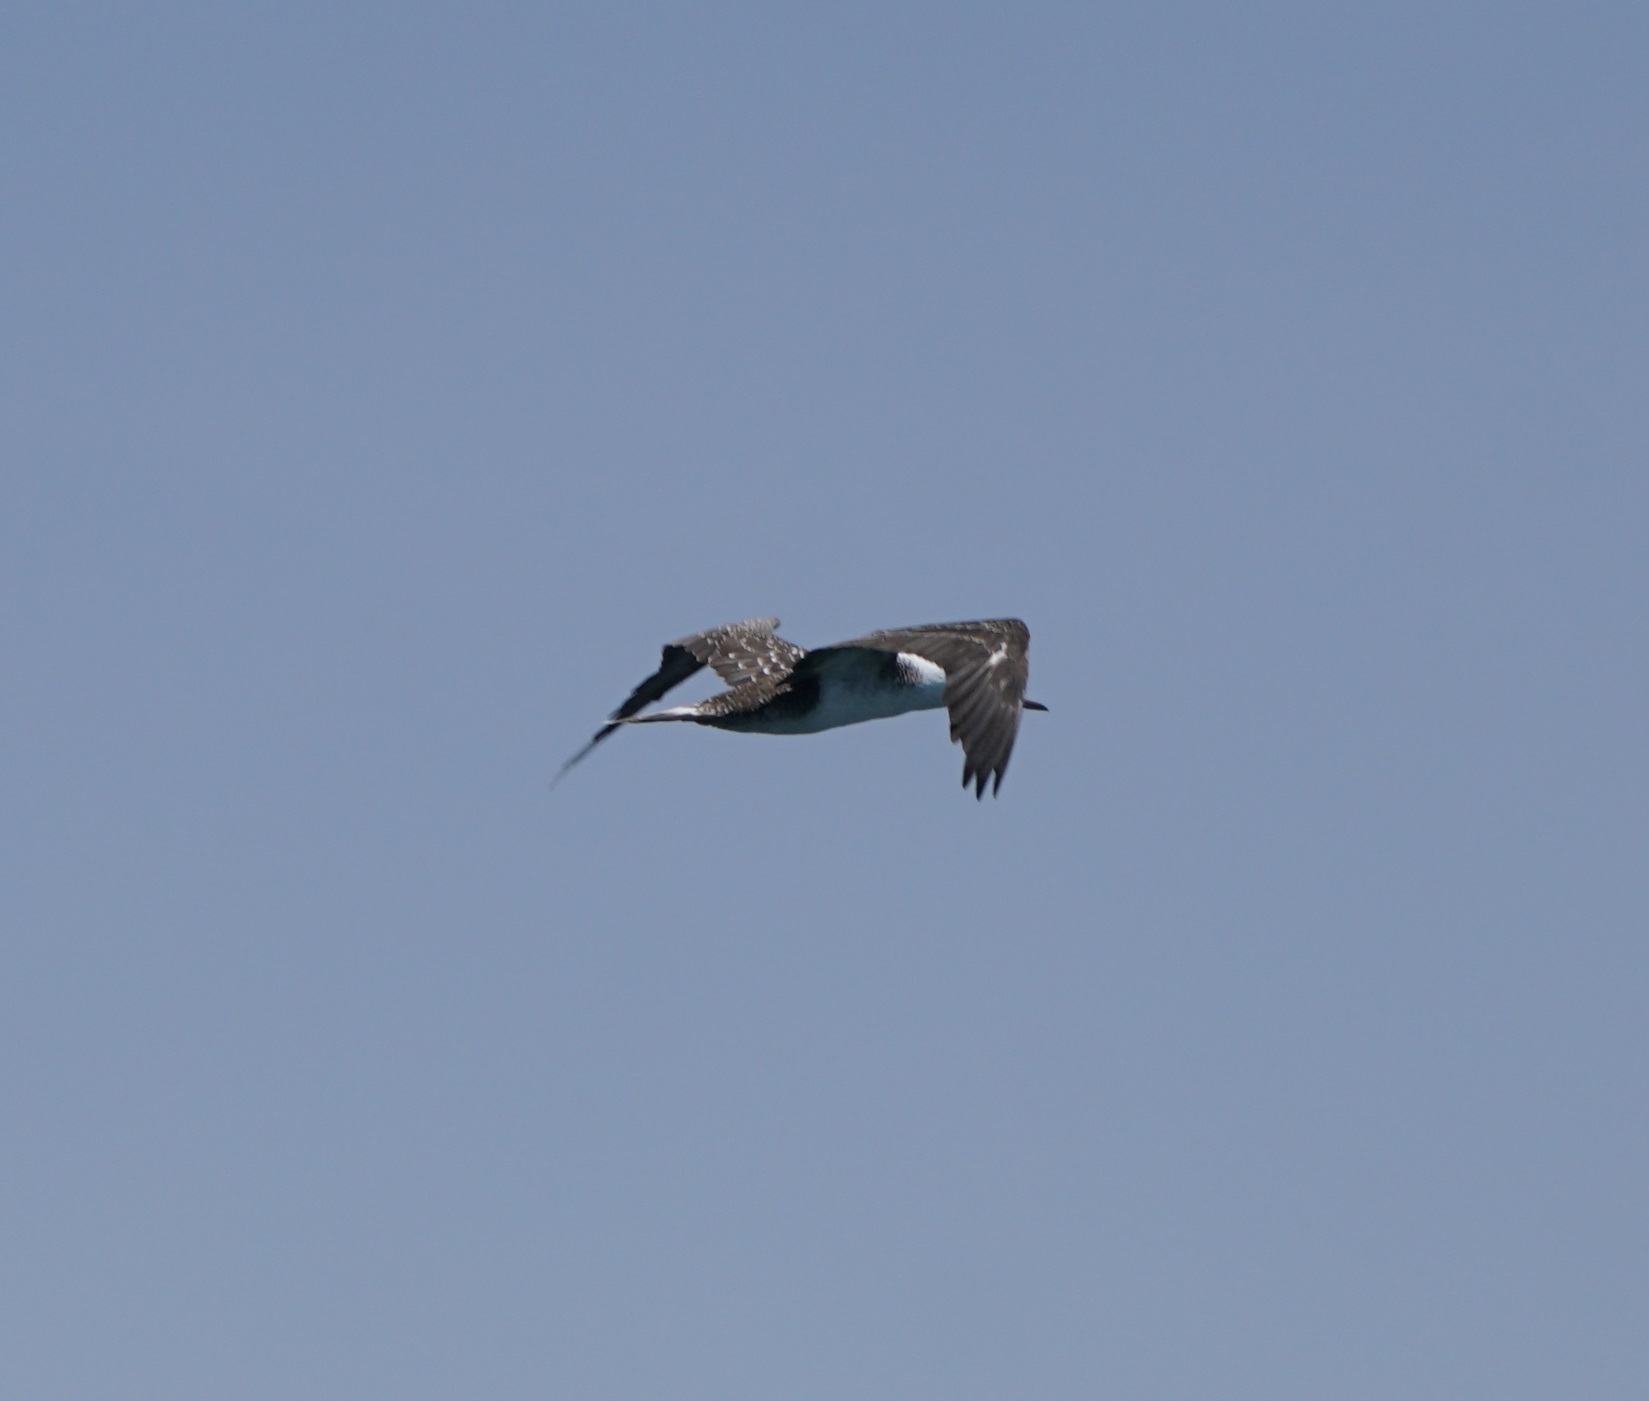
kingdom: Animalia
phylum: Chordata
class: Aves
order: Suliformes
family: Sulidae
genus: Sula
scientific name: Sula variegata
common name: Peruvian booby
